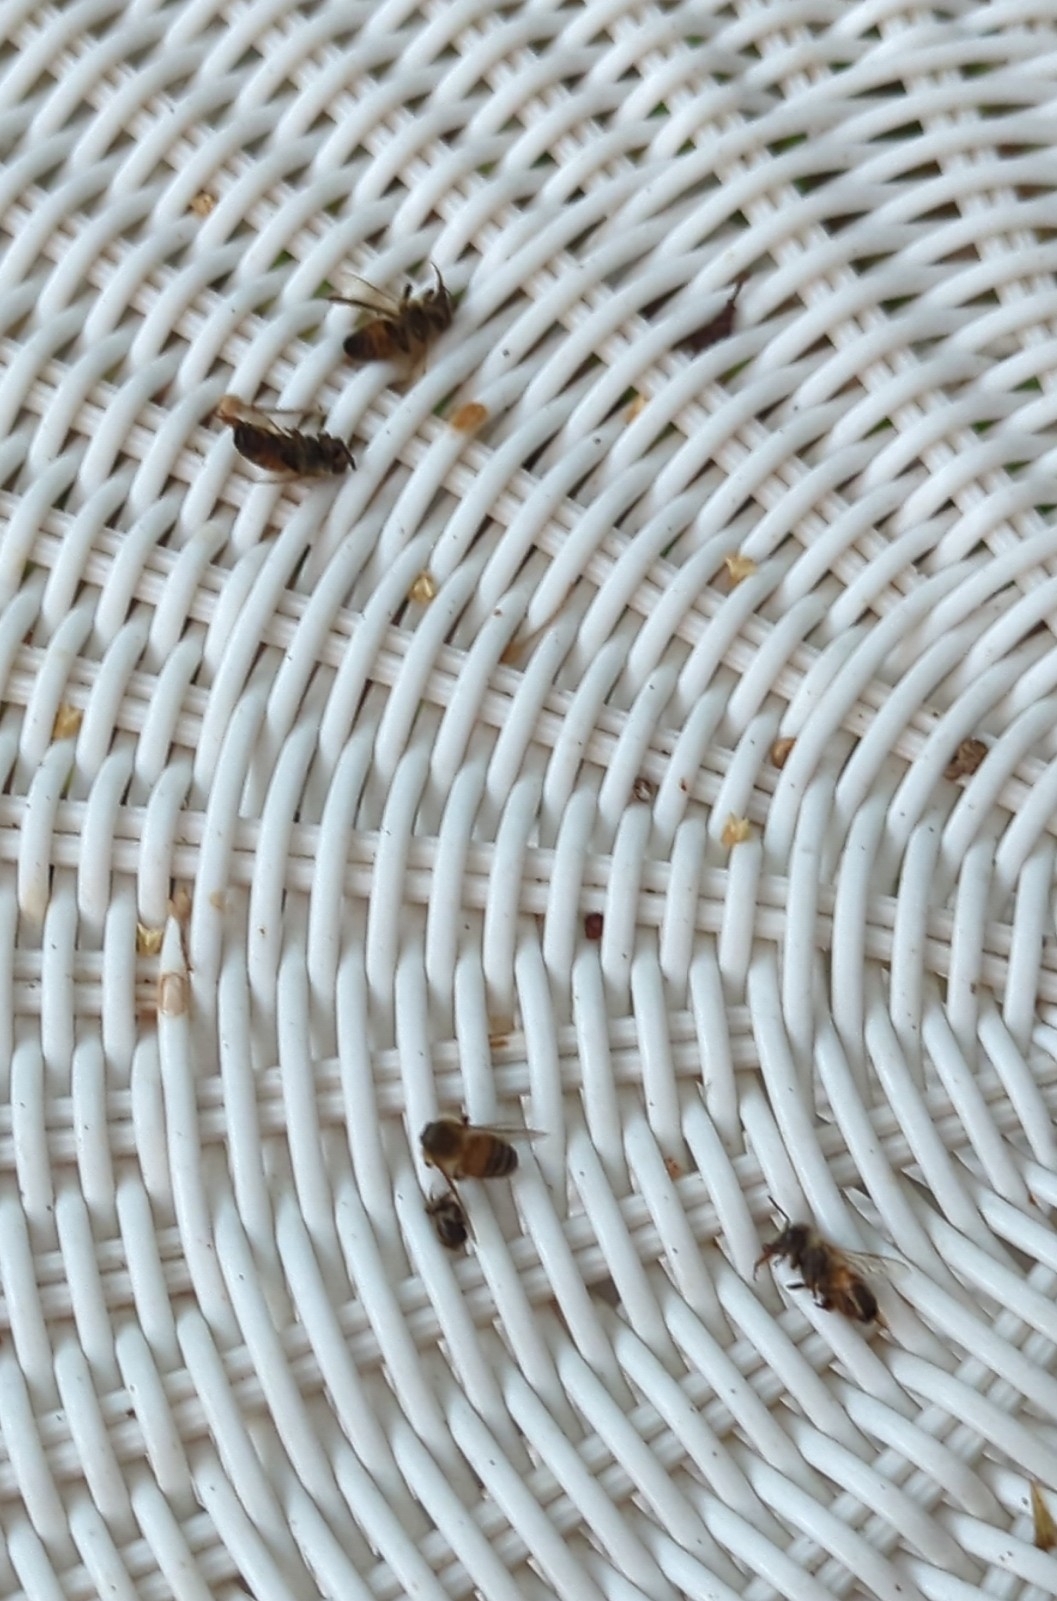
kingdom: Animalia
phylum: Arthropoda
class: Insecta
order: Hymenoptera
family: Apidae
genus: Apis
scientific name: Apis mellifera
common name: Honey bee
